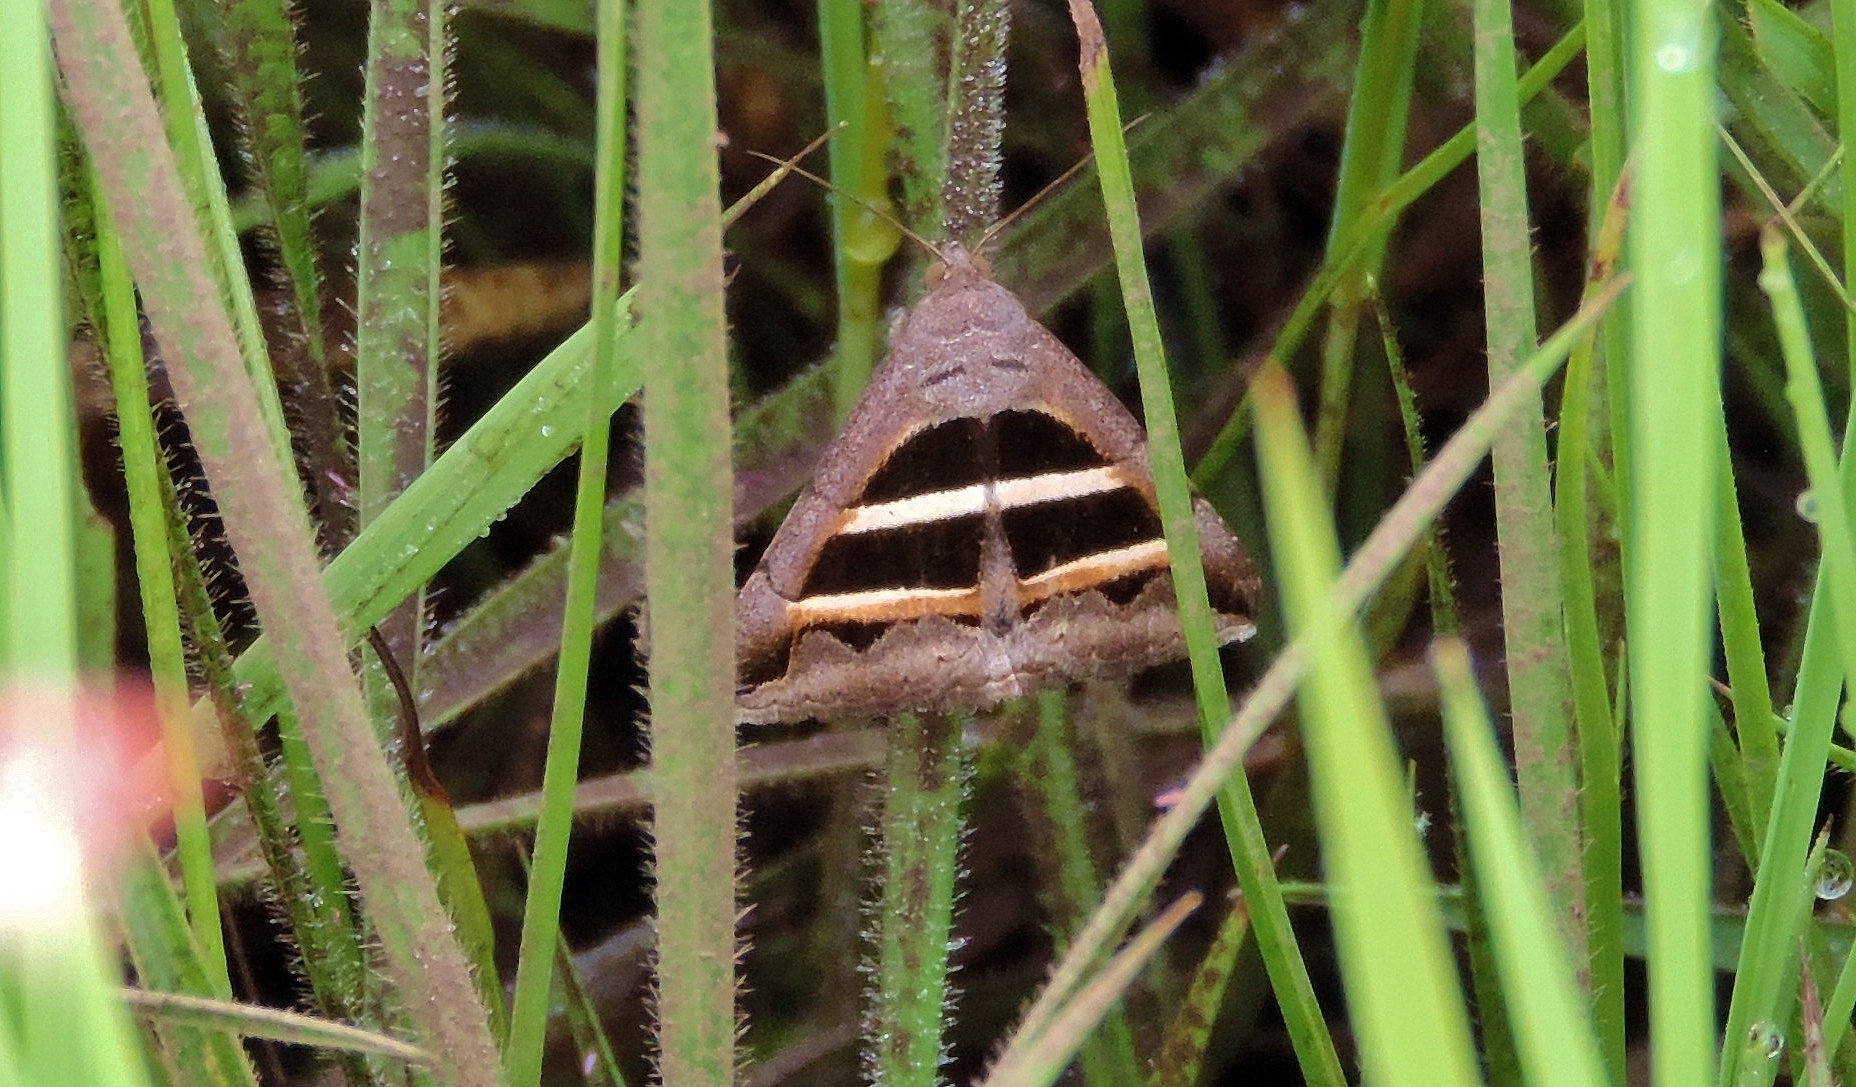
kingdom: Animalia
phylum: Arthropoda
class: Insecta
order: Lepidoptera
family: Erebidae
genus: Grammodes
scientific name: Grammodes bifasciata
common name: Parallel lines
